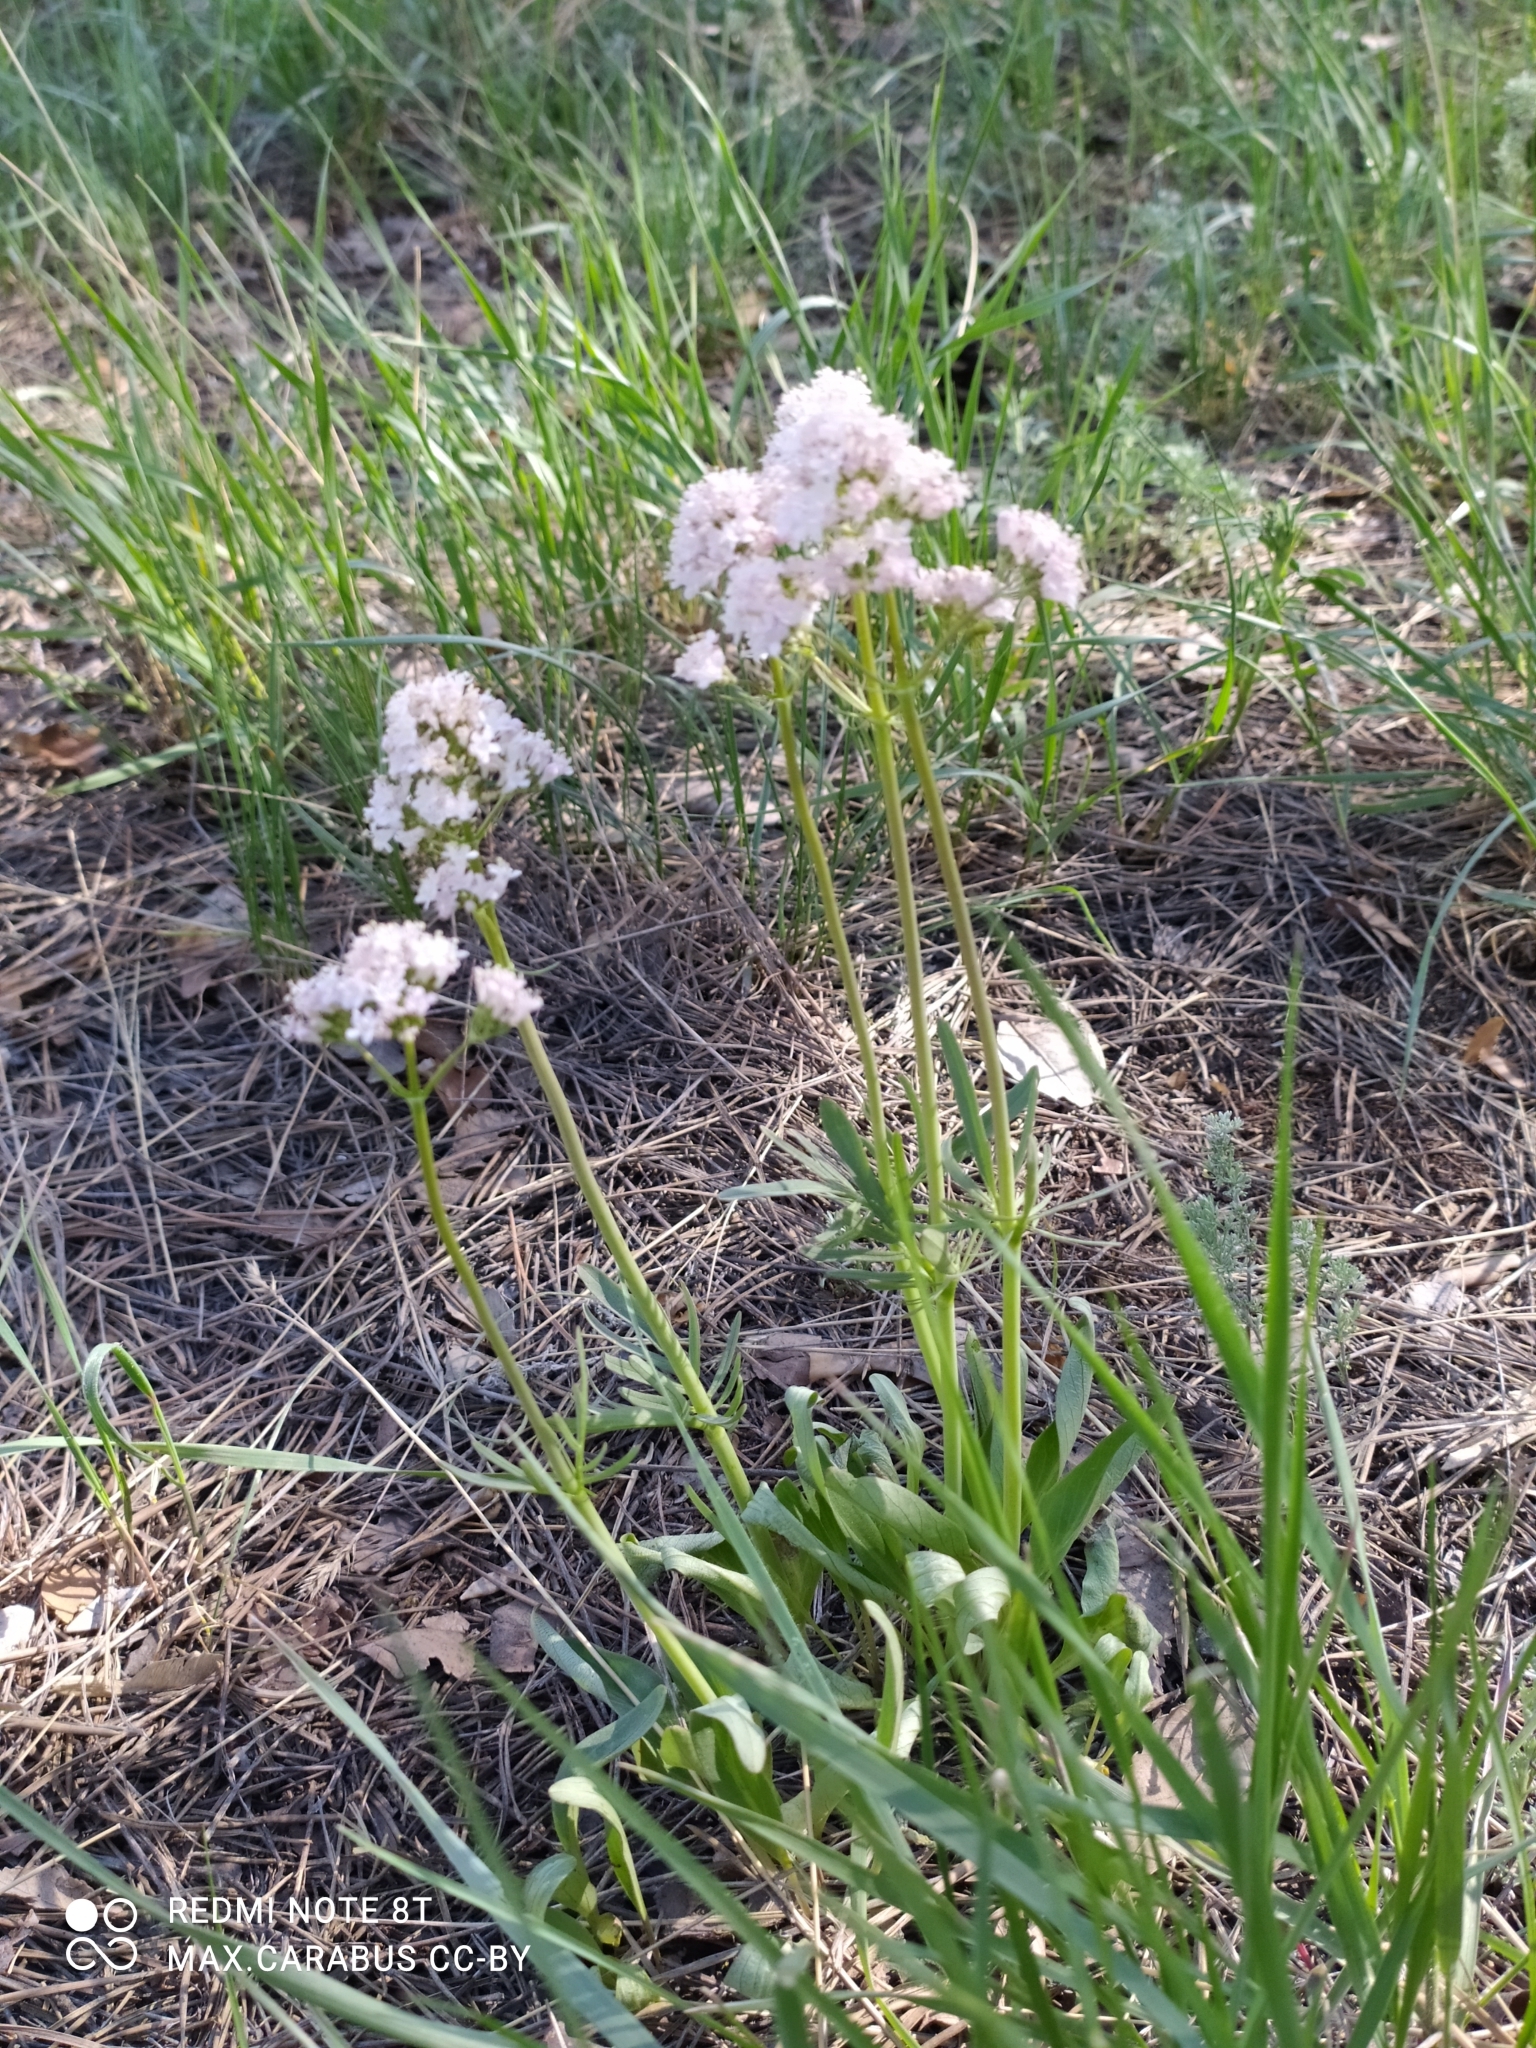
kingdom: Plantae
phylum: Tracheophyta
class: Magnoliopsida
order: Dipsacales
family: Caprifoliaceae
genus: Valeriana
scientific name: Valeriana tuberosa
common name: Tuberous valerian
